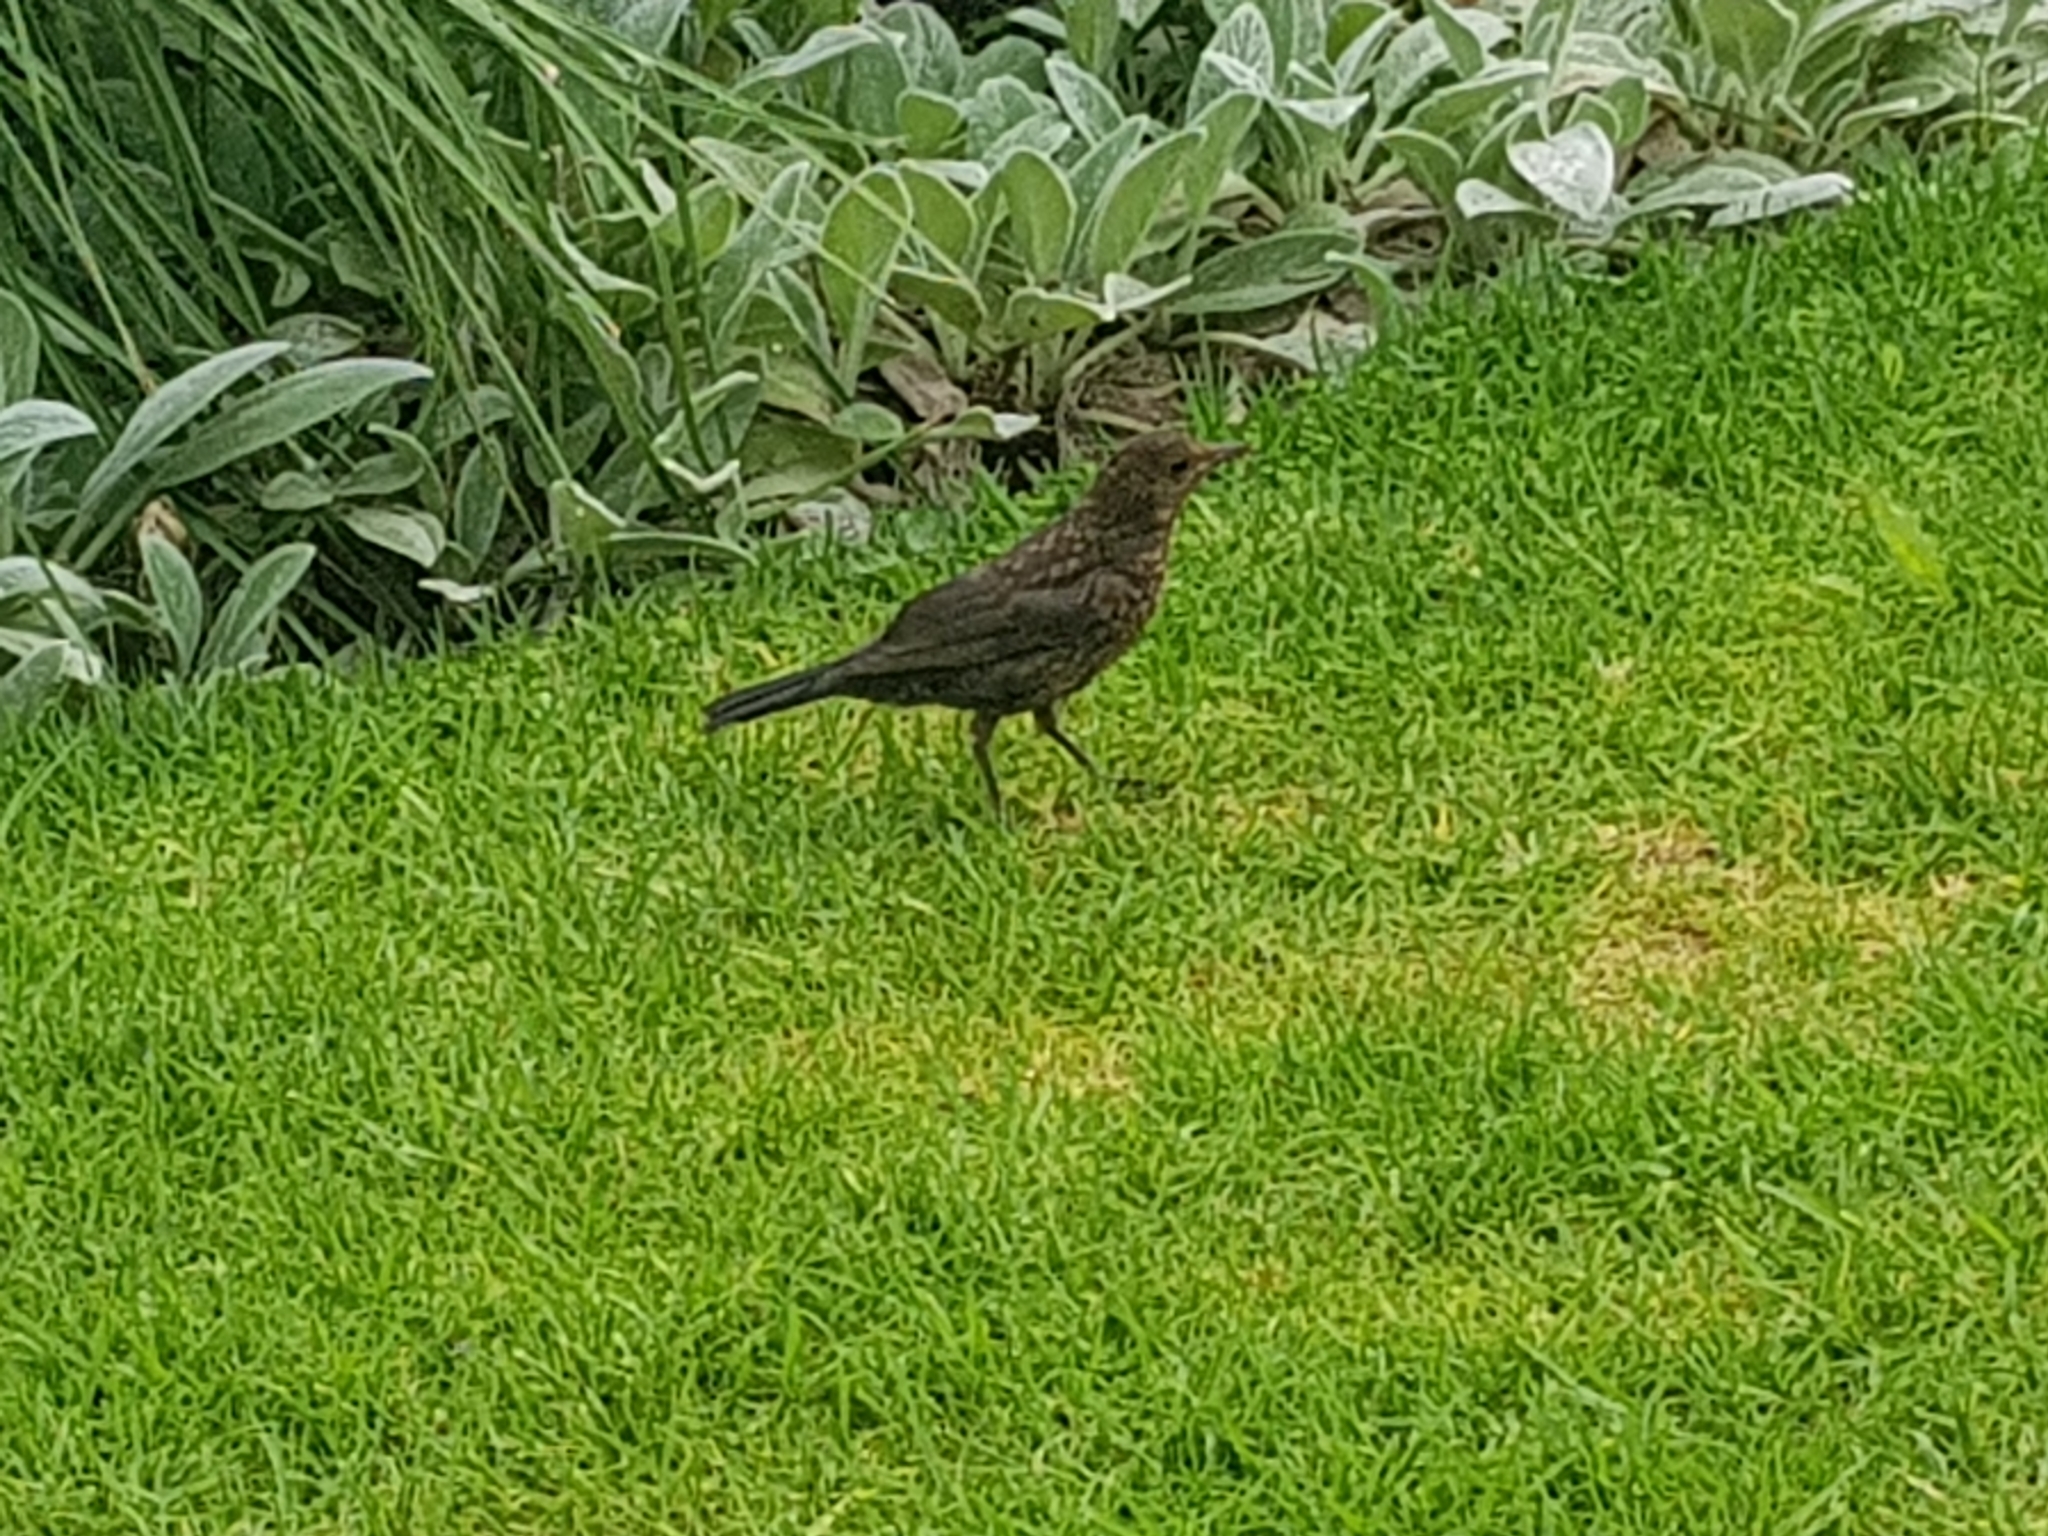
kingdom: Animalia
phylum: Chordata
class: Aves
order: Passeriformes
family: Turdidae
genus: Turdus
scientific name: Turdus merula
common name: Common blackbird
